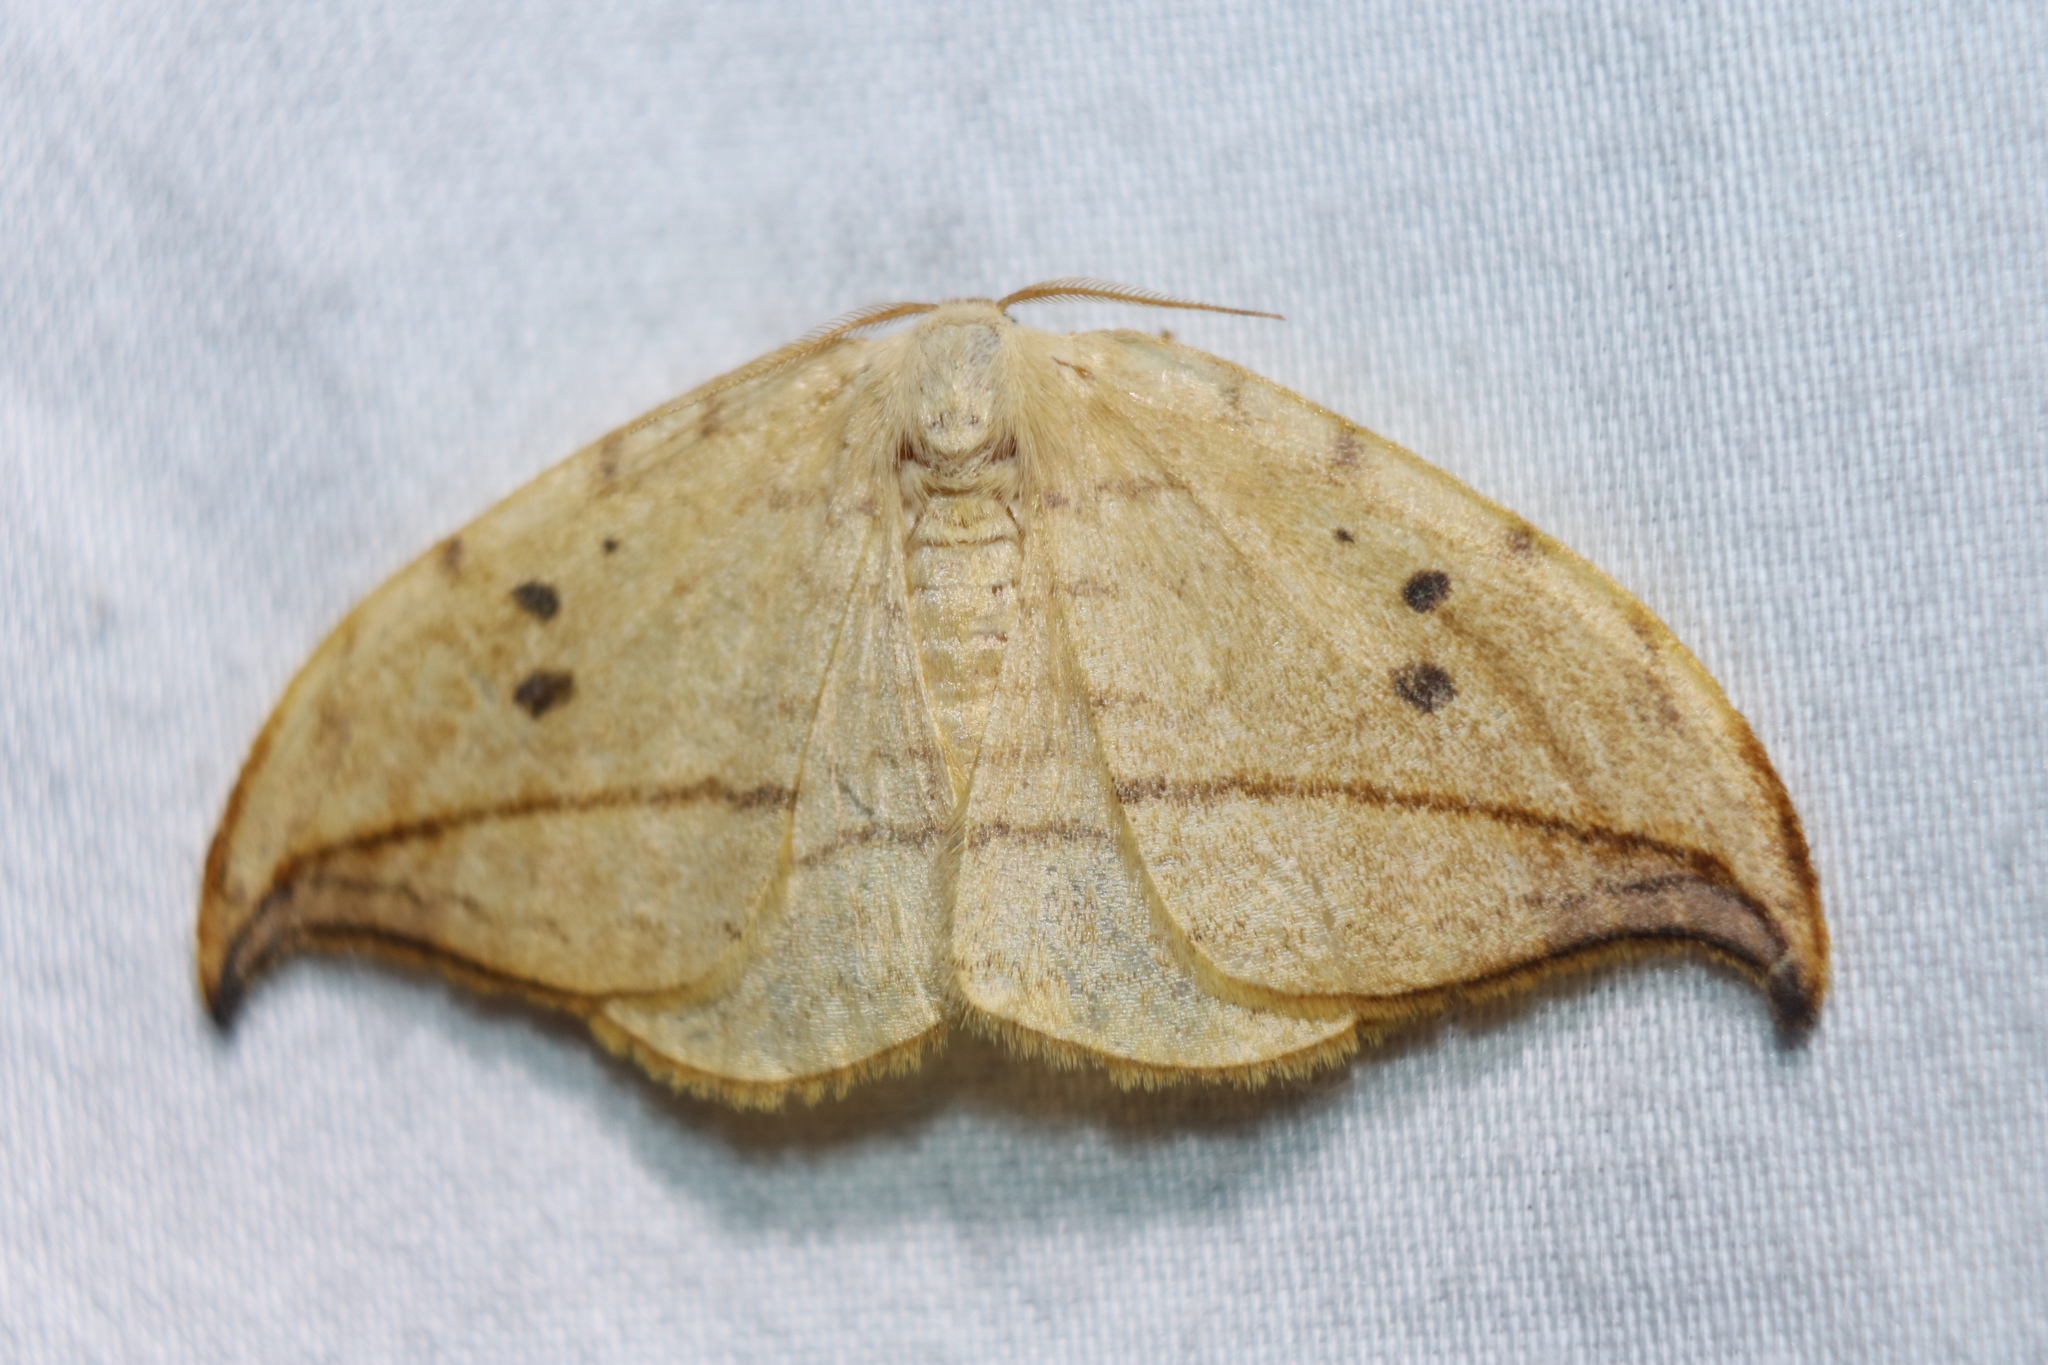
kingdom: Animalia
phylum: Arthropoda
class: Insecta
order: Lepidoptera
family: Drepanidae
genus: Drepana
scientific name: Drepana arcuata
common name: Arched hooktip moth
